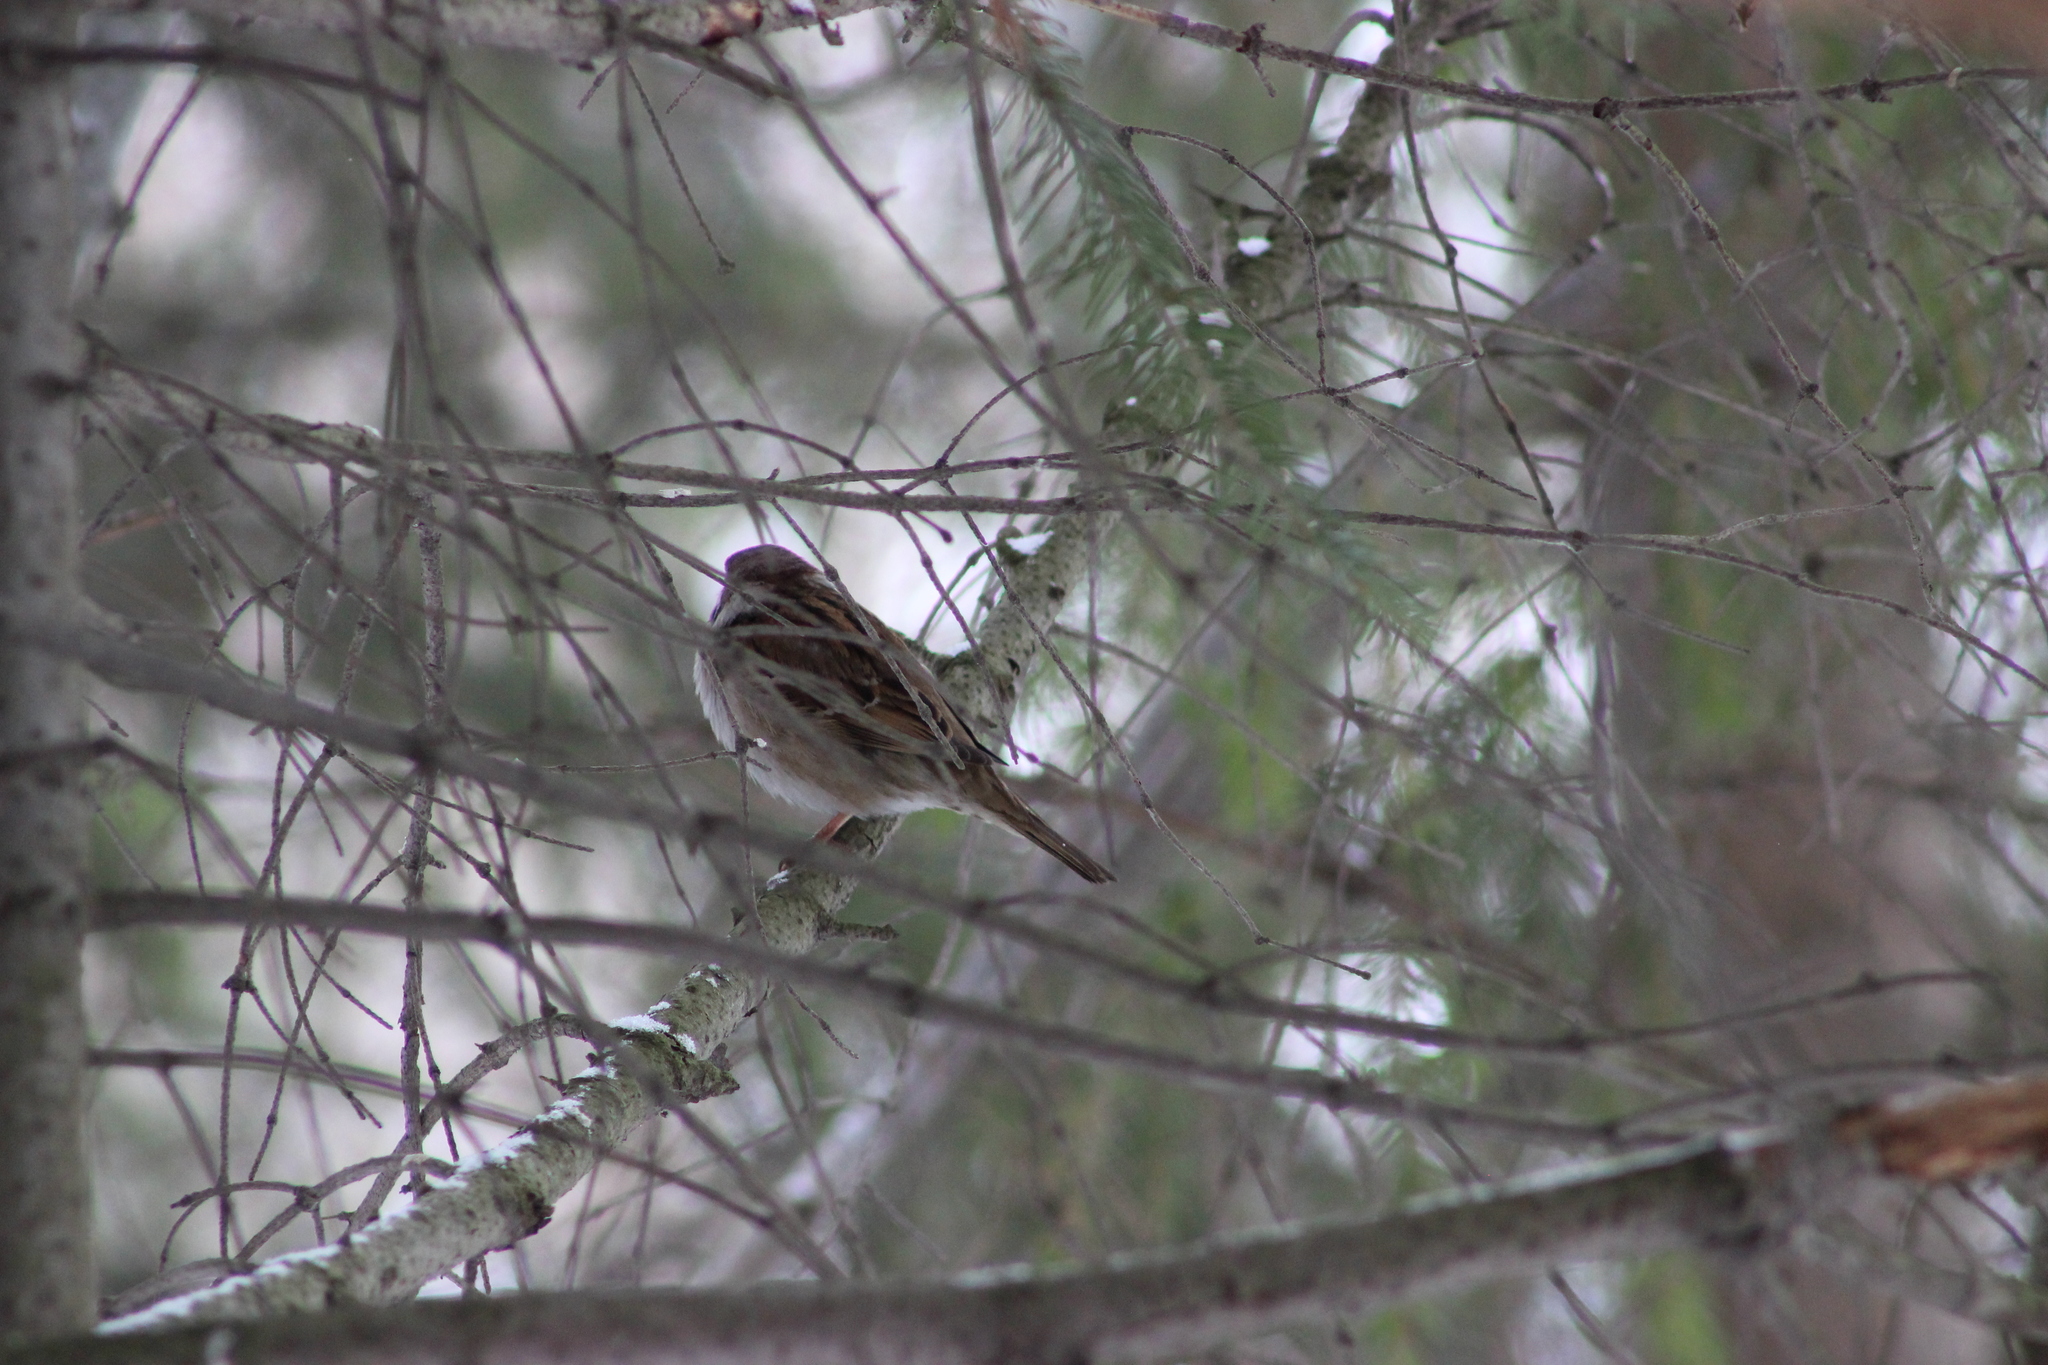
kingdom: Animalia
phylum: Chordata
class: Aves
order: Passeriformes
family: Passeridae
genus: Passer
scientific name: Passer domesticus
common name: House sparrow
